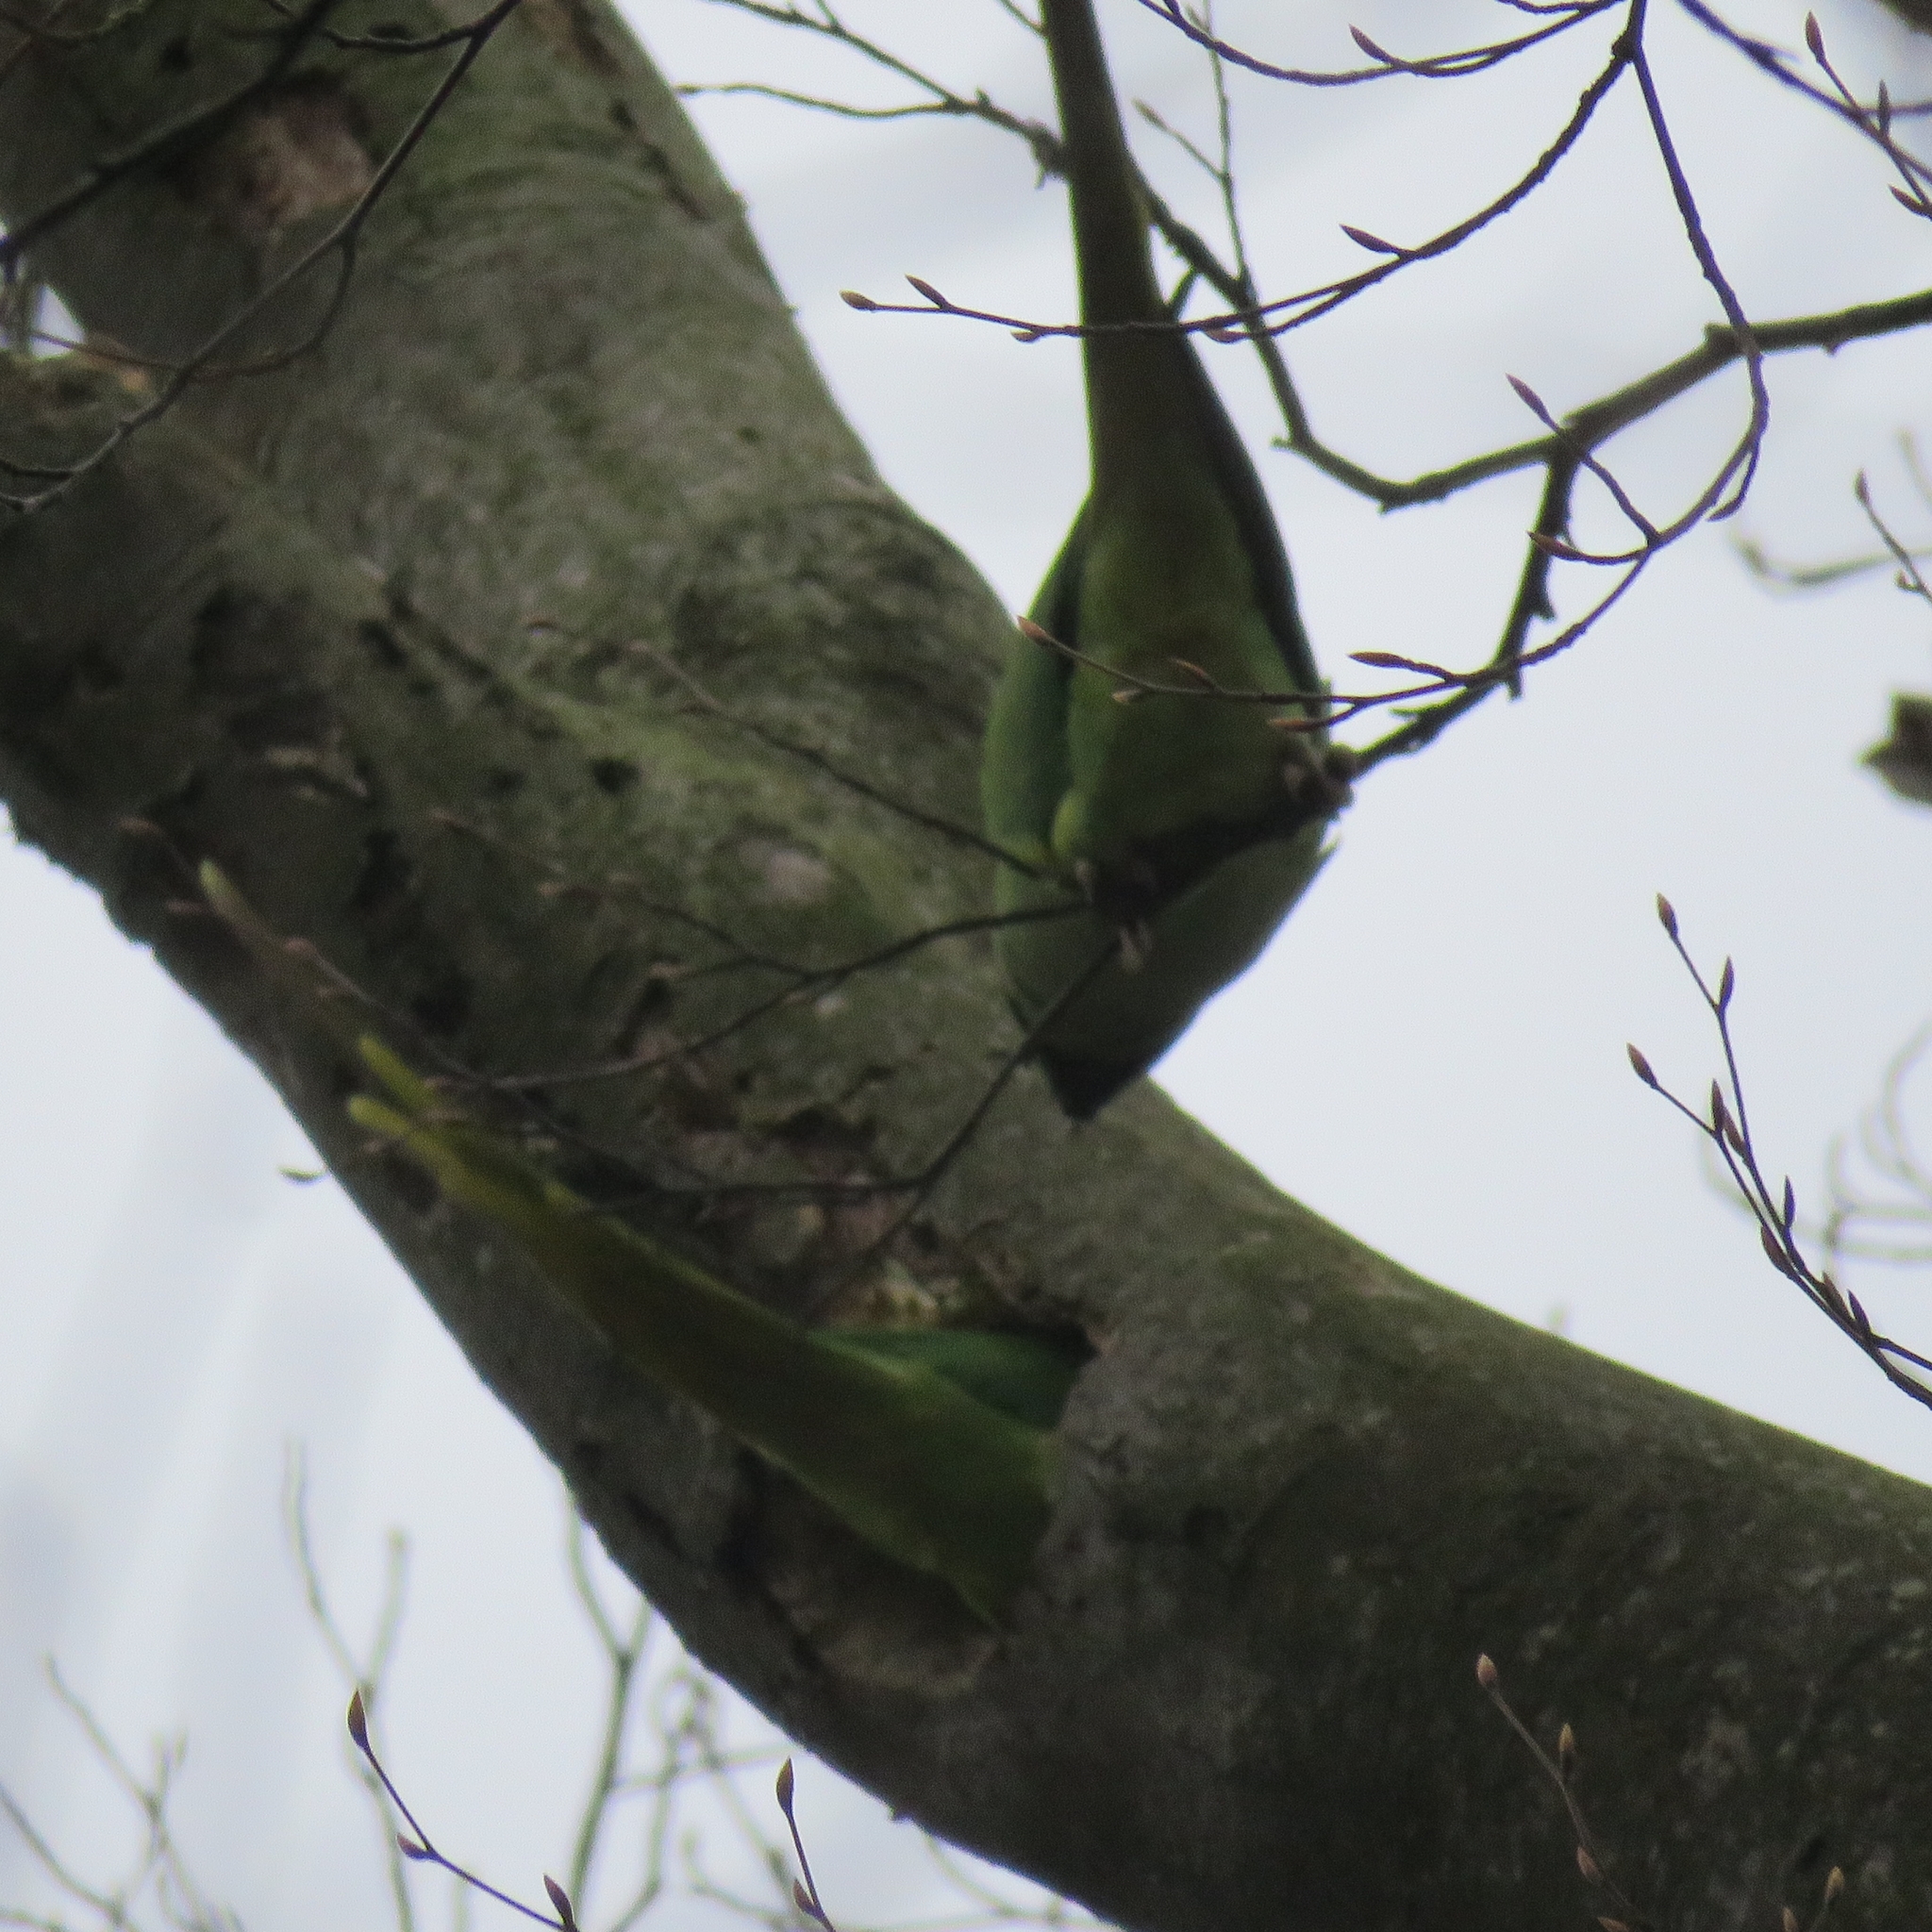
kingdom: Animalia
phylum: Chordata
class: Aves
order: Psittaciformes
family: Psittacidae
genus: Psittacula
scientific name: Psittacula krameri
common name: Rose-ringed parakeet
